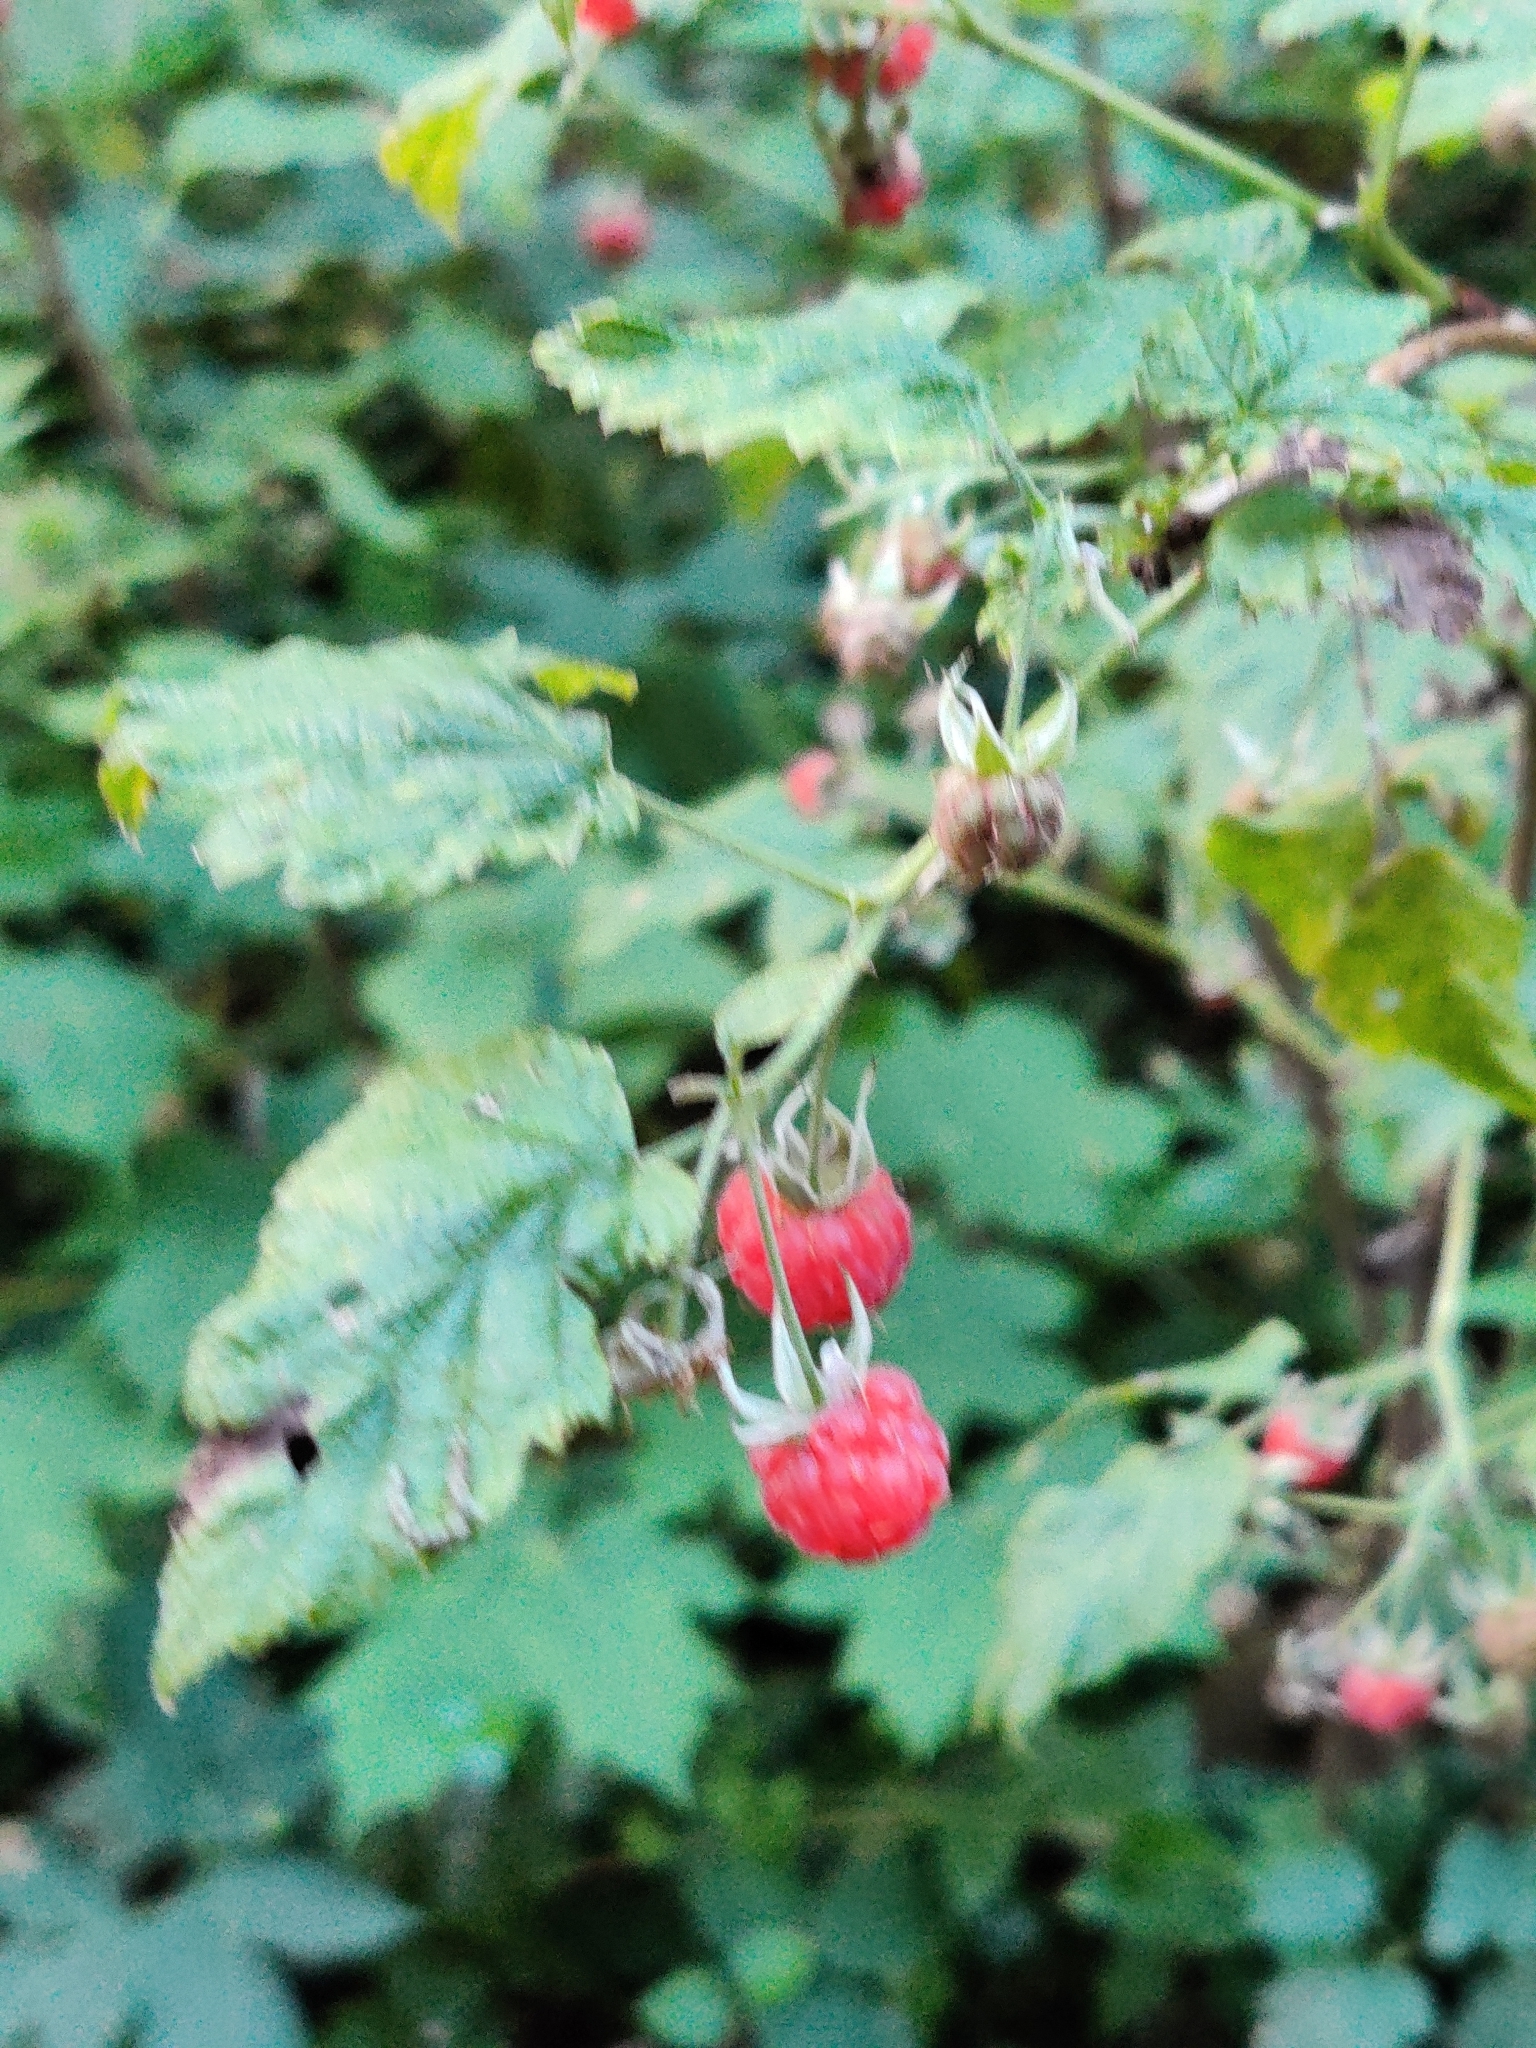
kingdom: Plantae
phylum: Tracheophyta
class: Magnoliopsida
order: Rosales
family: Rosaceae
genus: Rubus
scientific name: Rubus idaeus
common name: Raspberry
